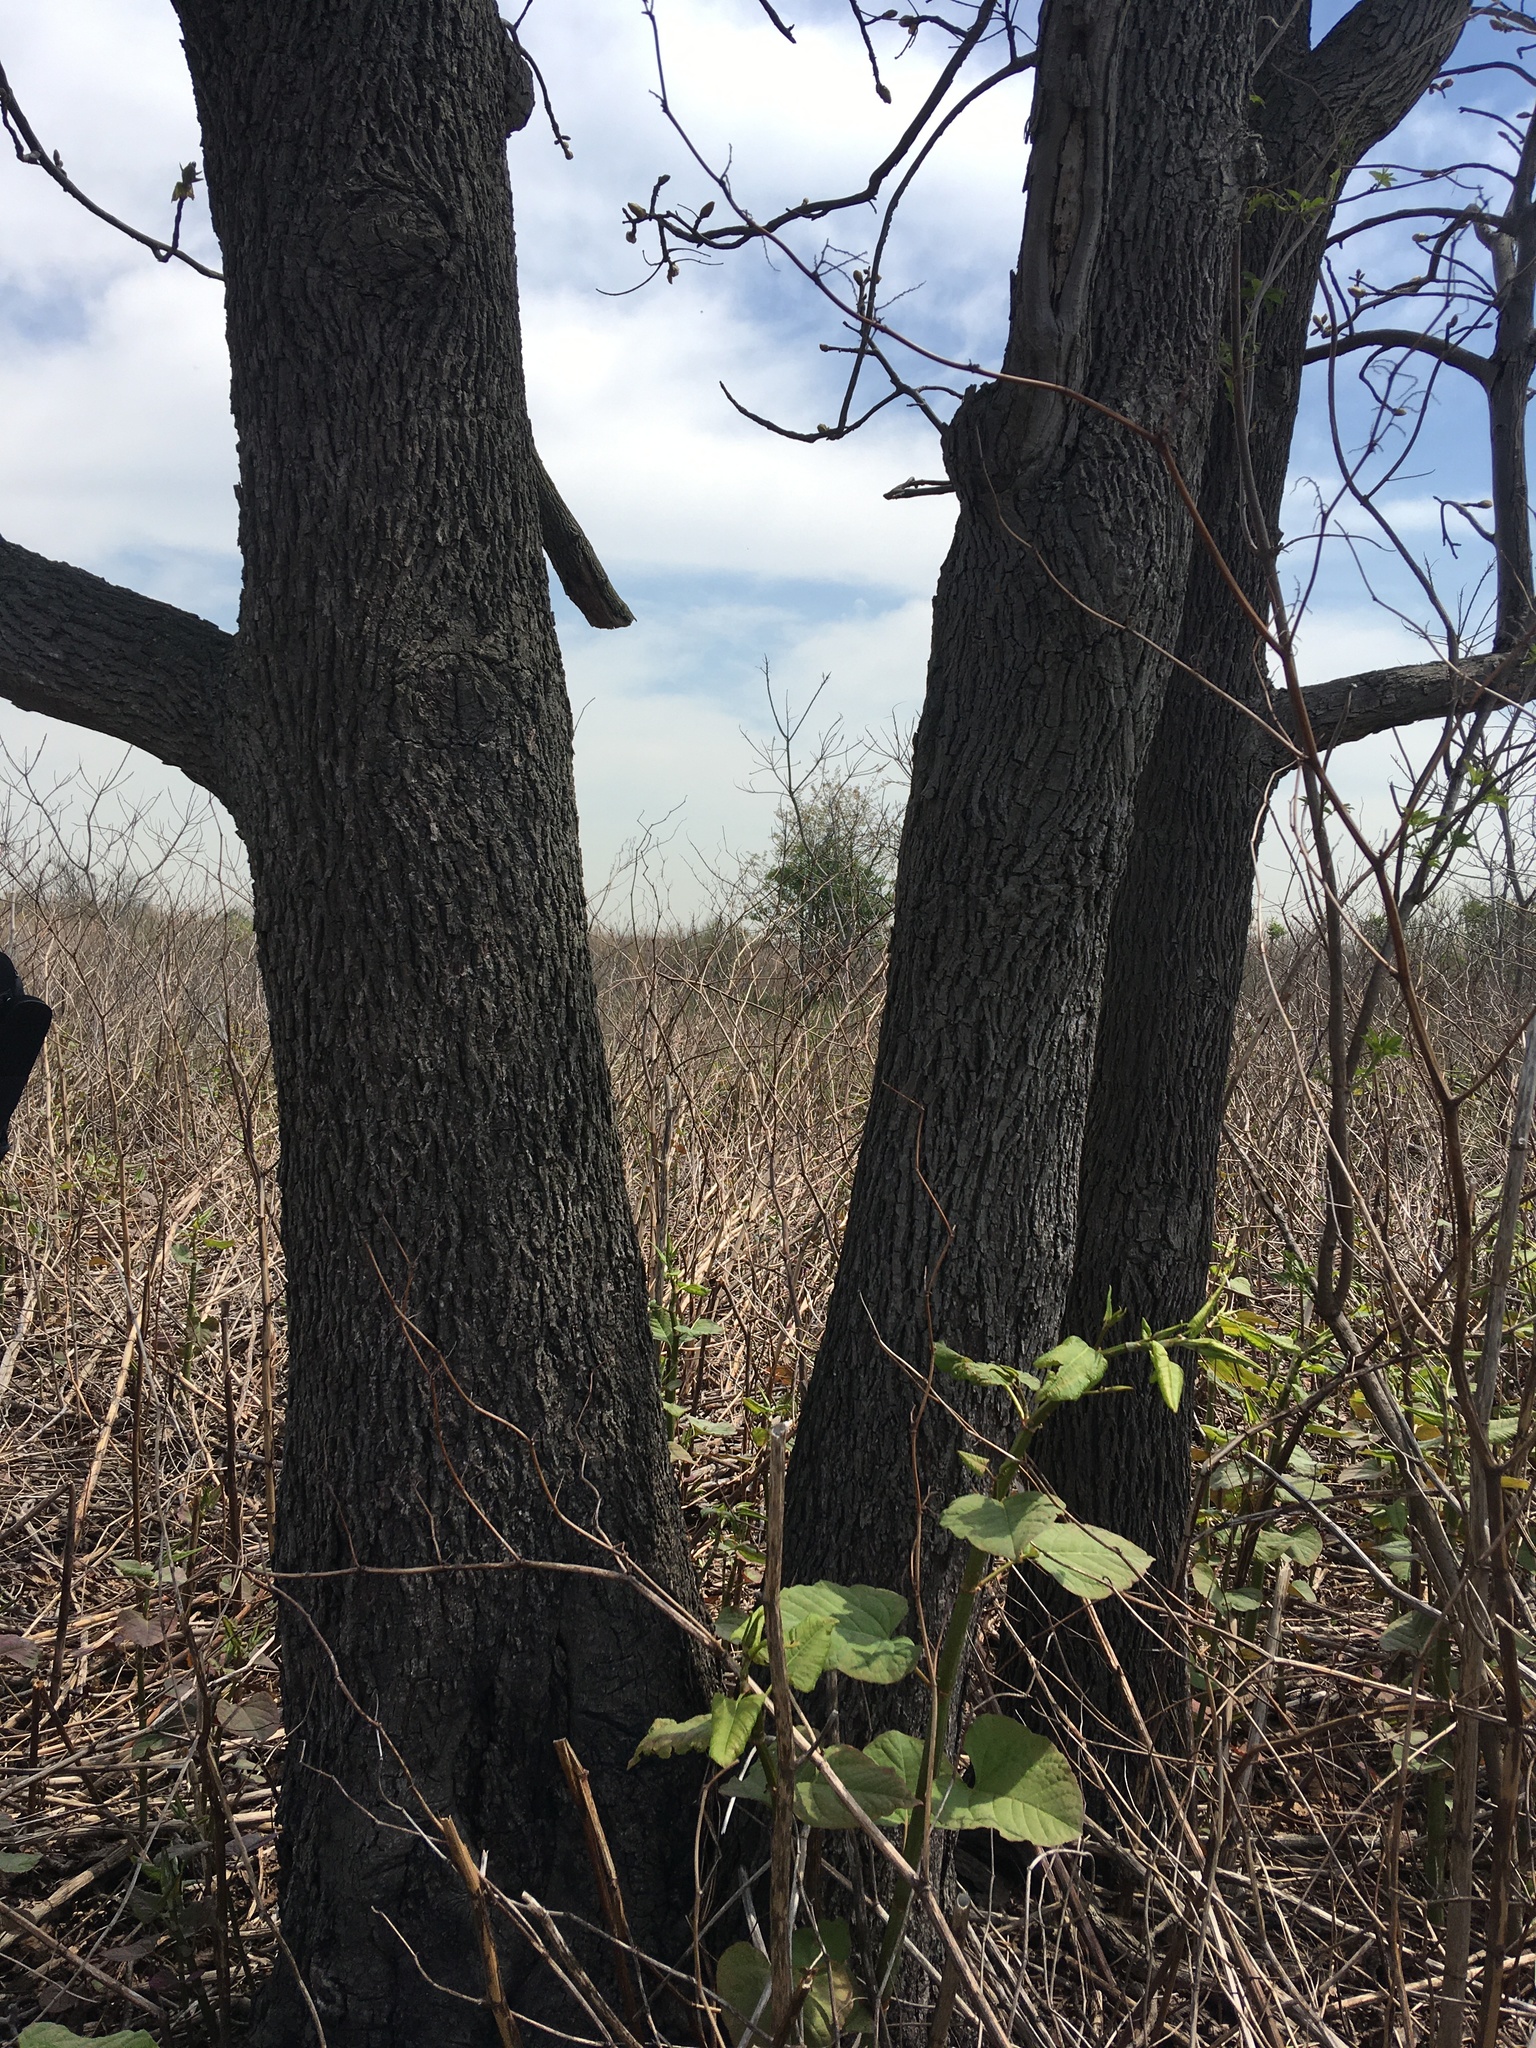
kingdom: Plantae
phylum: Tracheophyta
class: Magnoliopsida
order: Fagales
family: Juglandaceae
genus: Carya
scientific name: Carya alba
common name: Mockernut hickory
